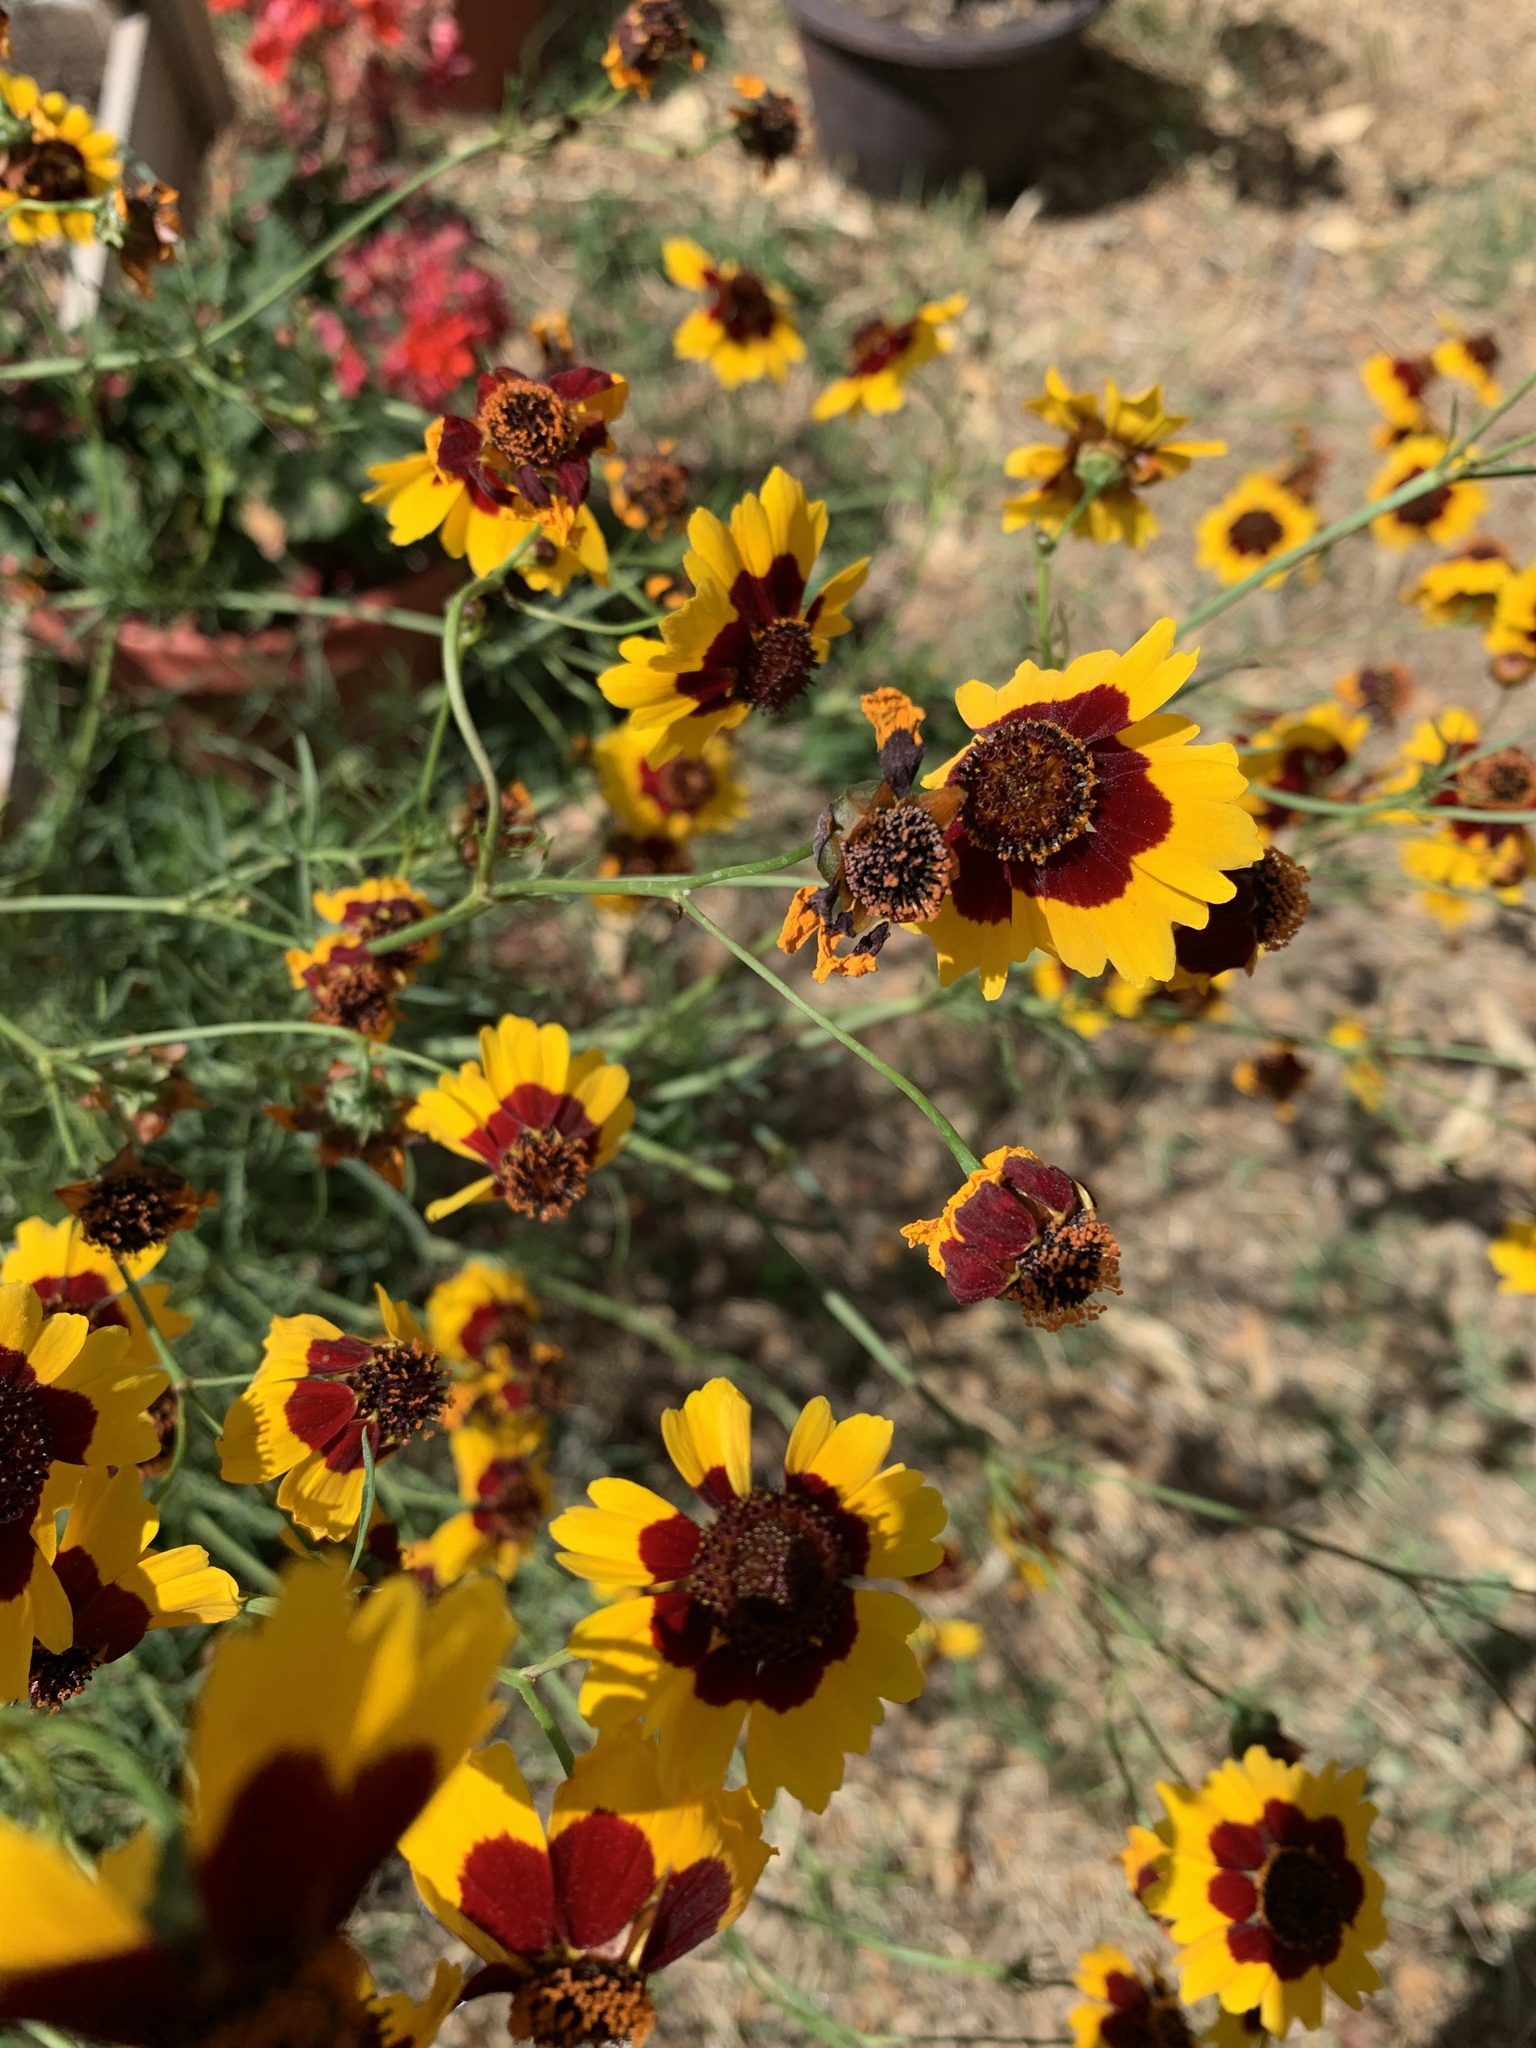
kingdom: Plantae
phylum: Tracheophyta
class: Magnoliopsida
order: Asterales
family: Asteraceae
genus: Coreopsis
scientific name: Coreopsis tinctoria
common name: Garden tickseed
